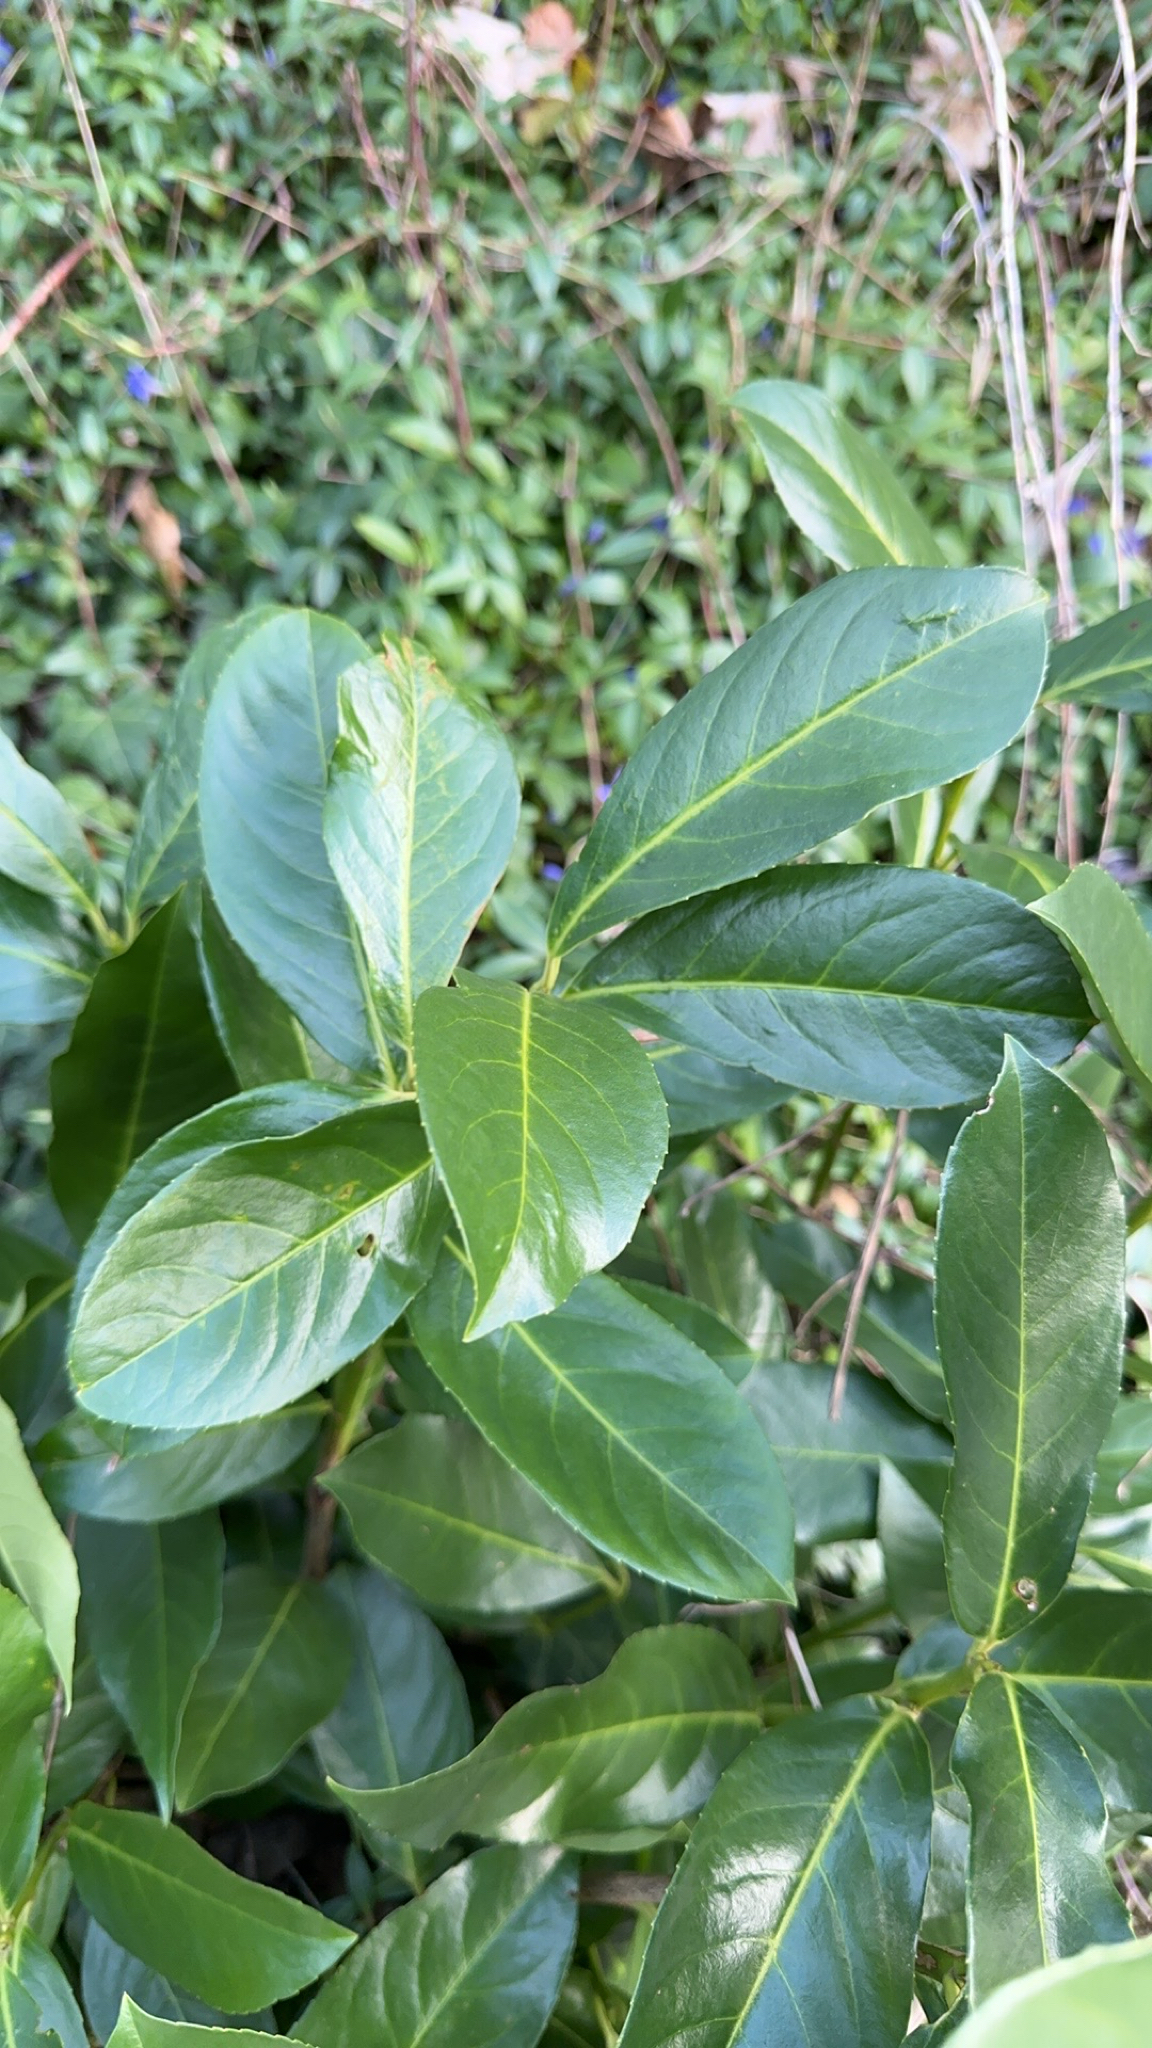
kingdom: Plantae
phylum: Tracheophyta
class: Magnoliopsida
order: Rosales
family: Rosaceae
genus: Prunus
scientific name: Prunus laurocerasus
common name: Cherry laurel
